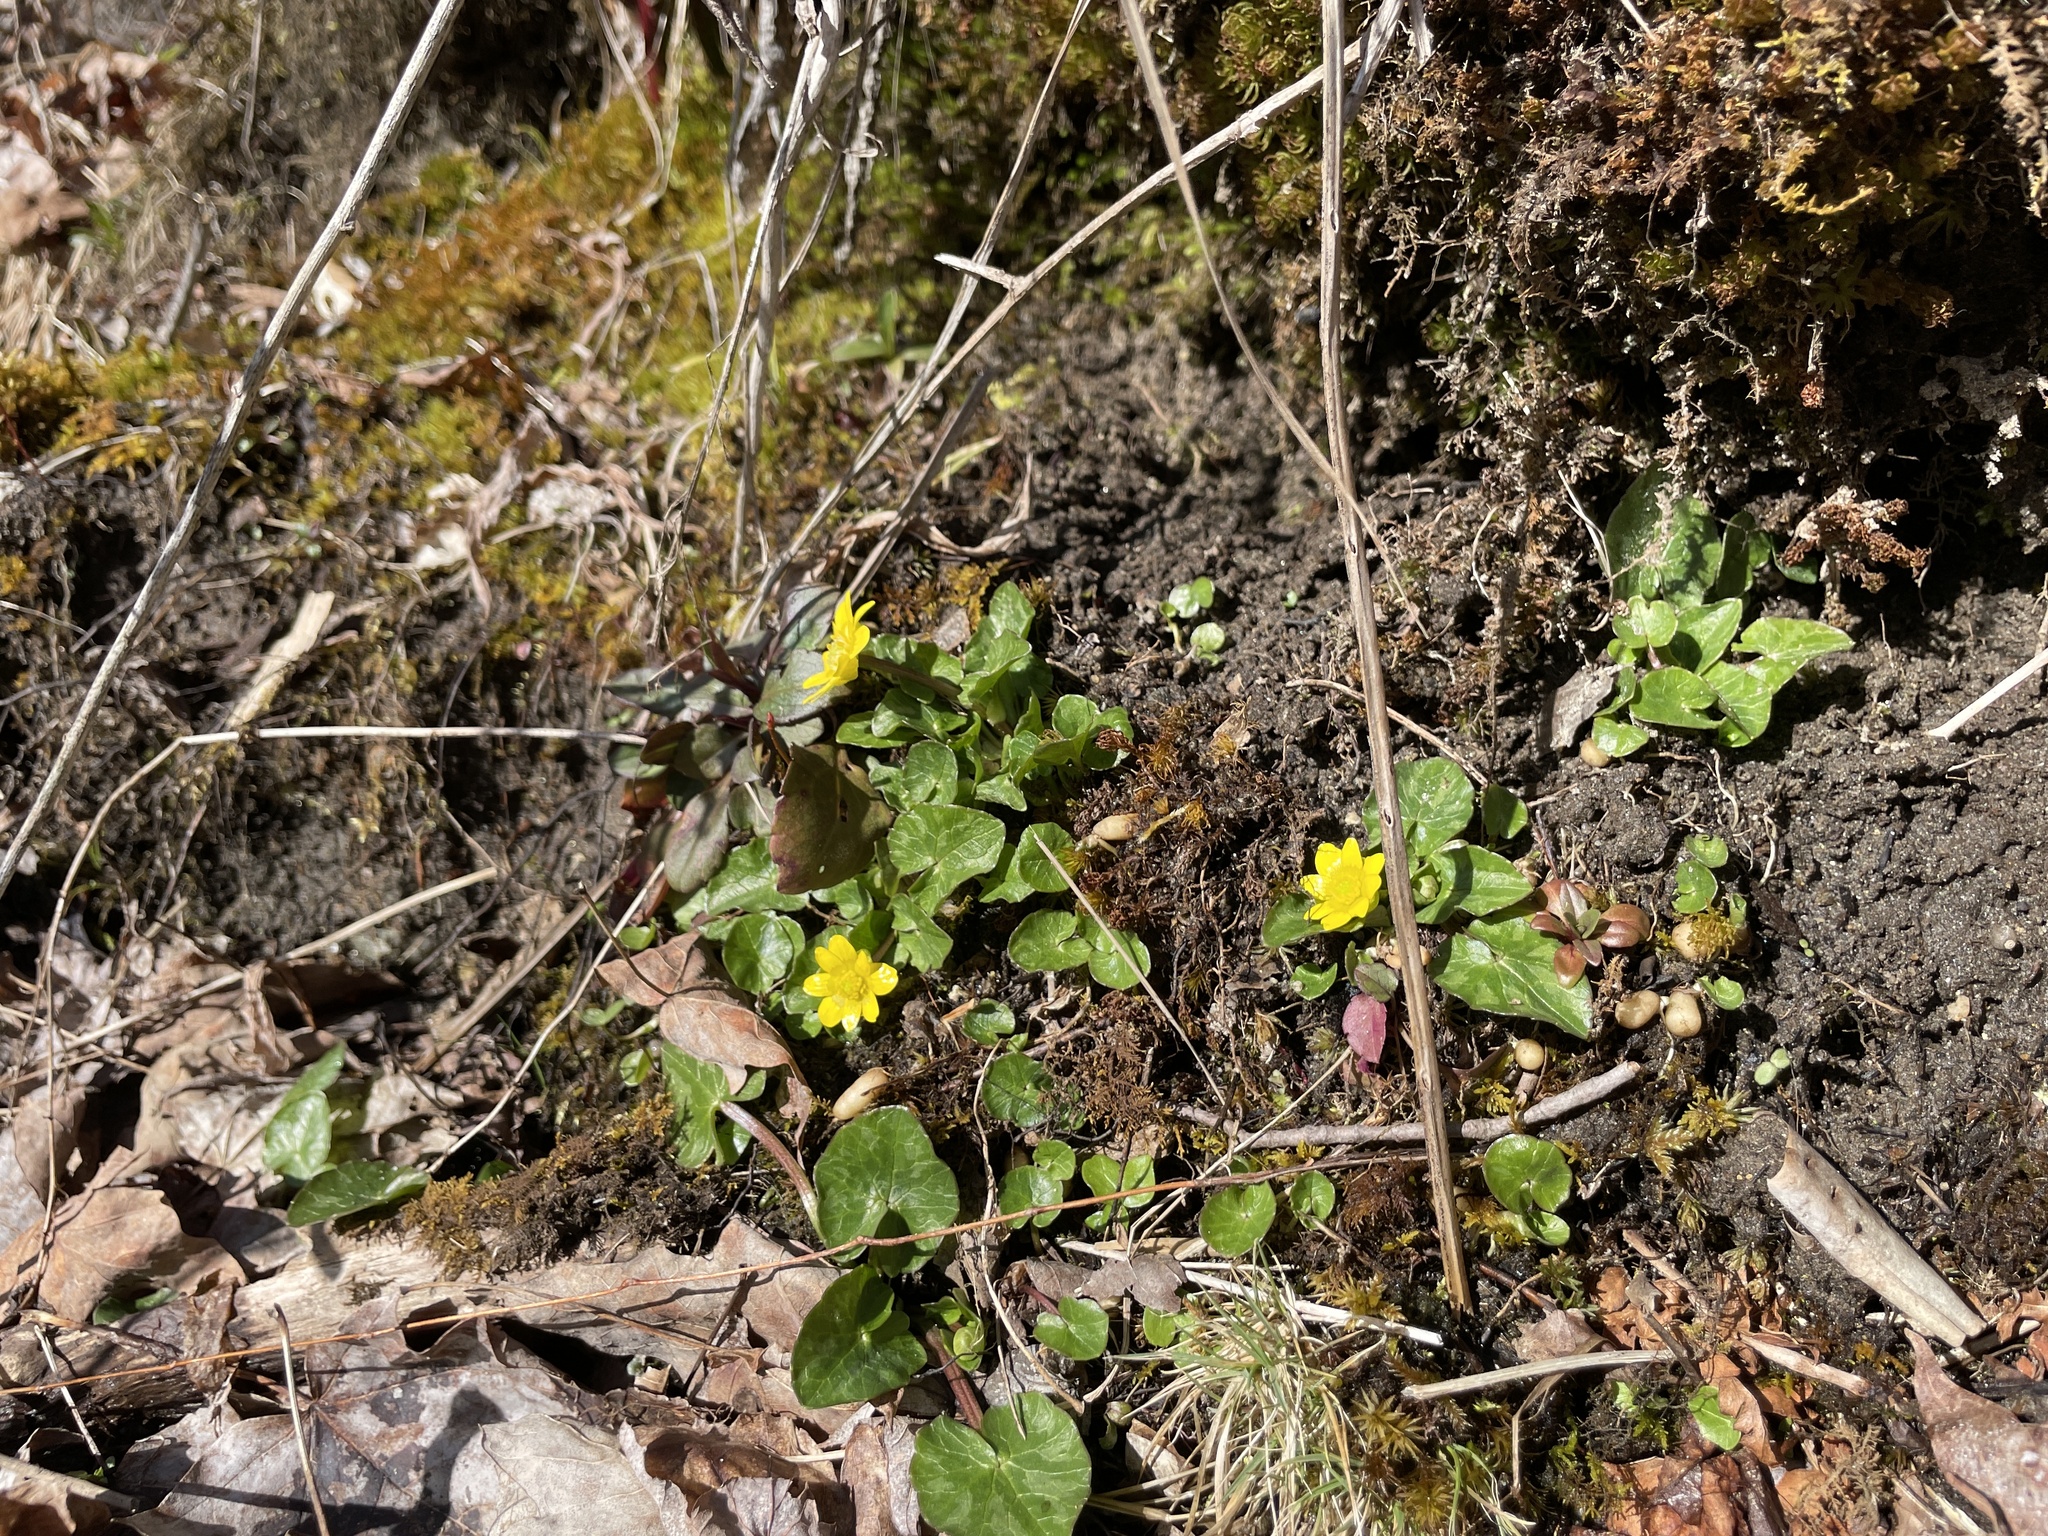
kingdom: Plantae
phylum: Tracheophyta
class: Magnoliopsida
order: Ranunculales
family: Ranunculaceae
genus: Ficaria
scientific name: Ficaria verna
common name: Lesser celandine
